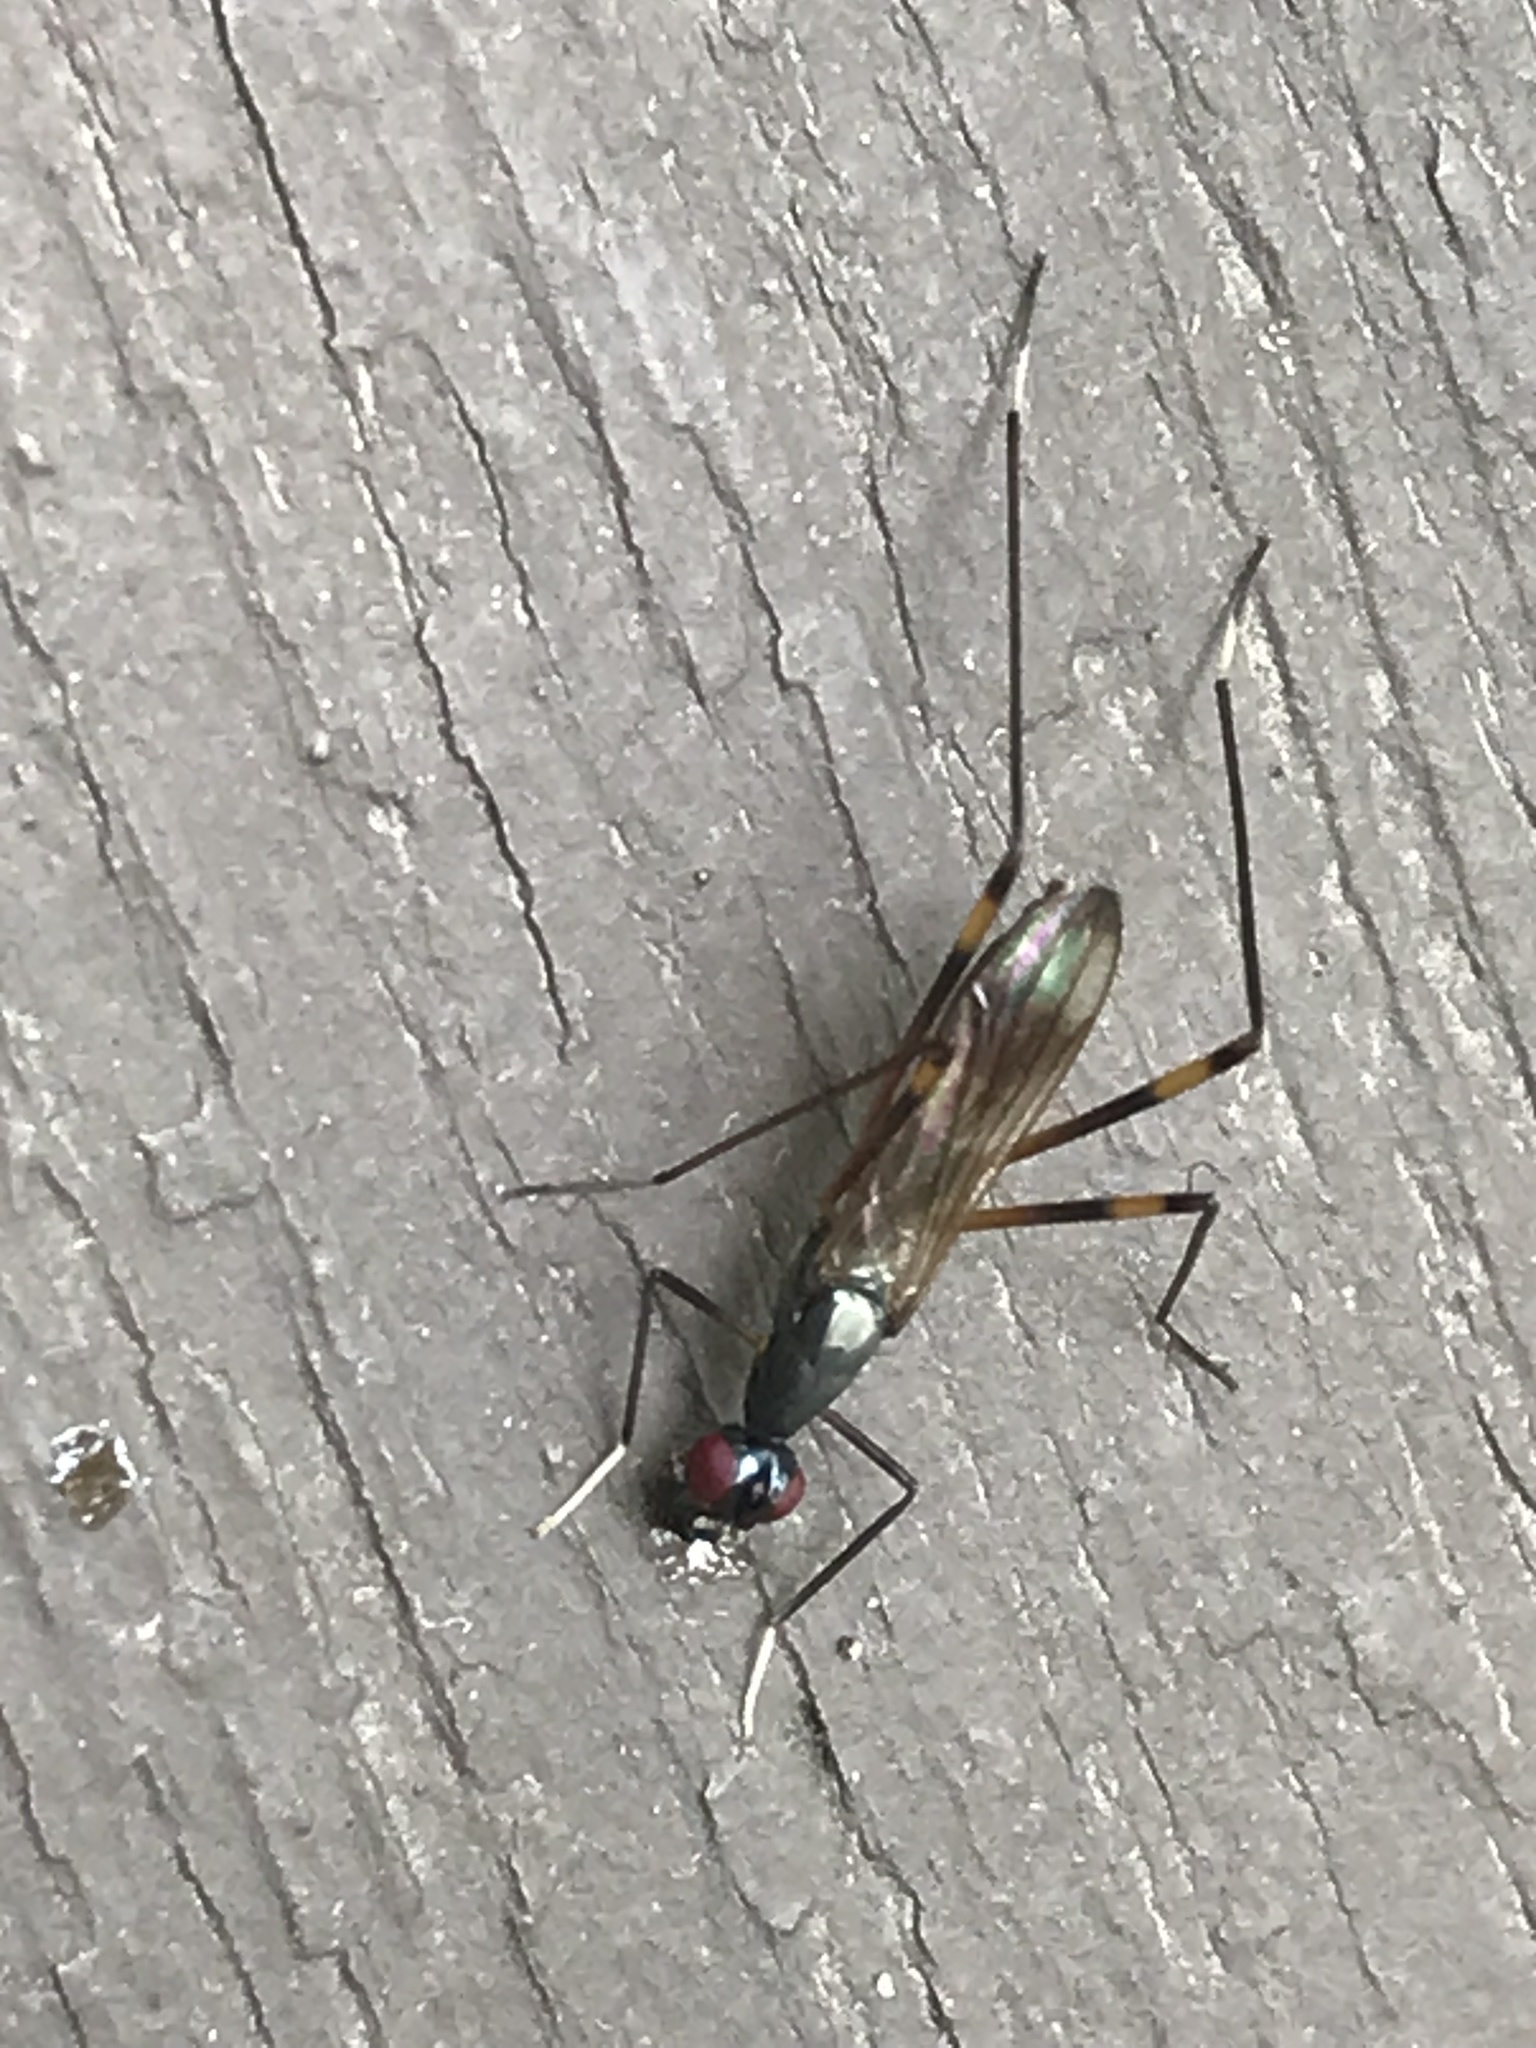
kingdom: Animalia
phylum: Arthropoda
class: Insecta
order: Diptera
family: Micropezidae
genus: Rainieria
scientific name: Rainieria antennaepes
